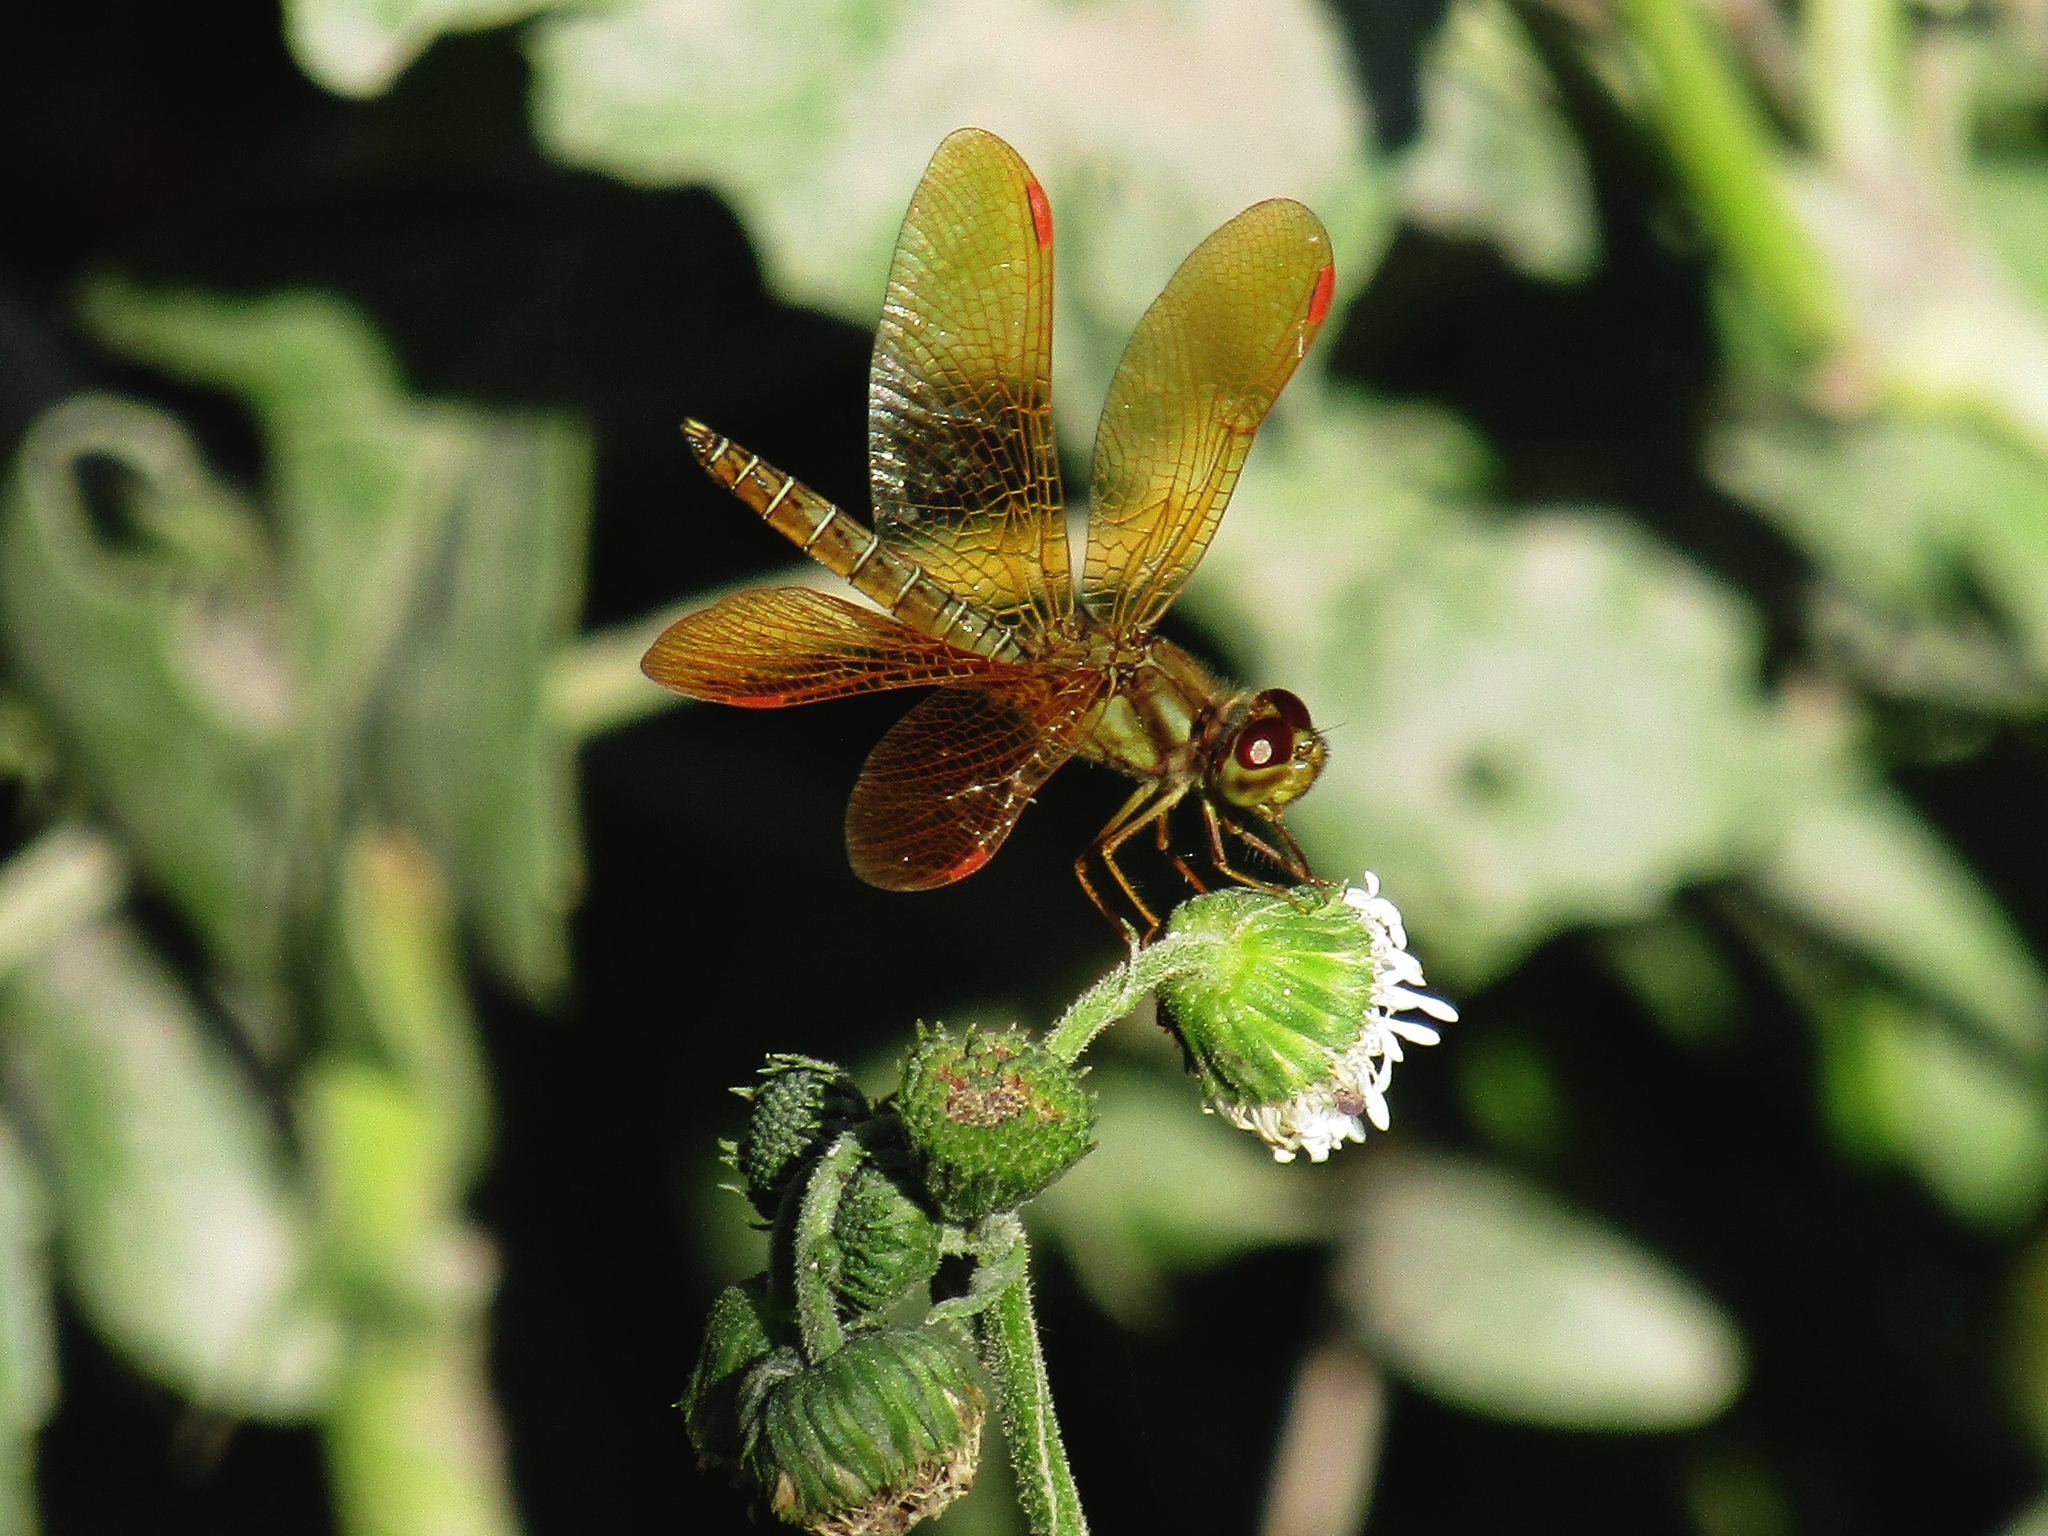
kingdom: Animalia
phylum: Arthropoda
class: Insecta
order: Odonata
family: Libellulidae
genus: Perithemis
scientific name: Perithemis tenera
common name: Eastern amberwing
